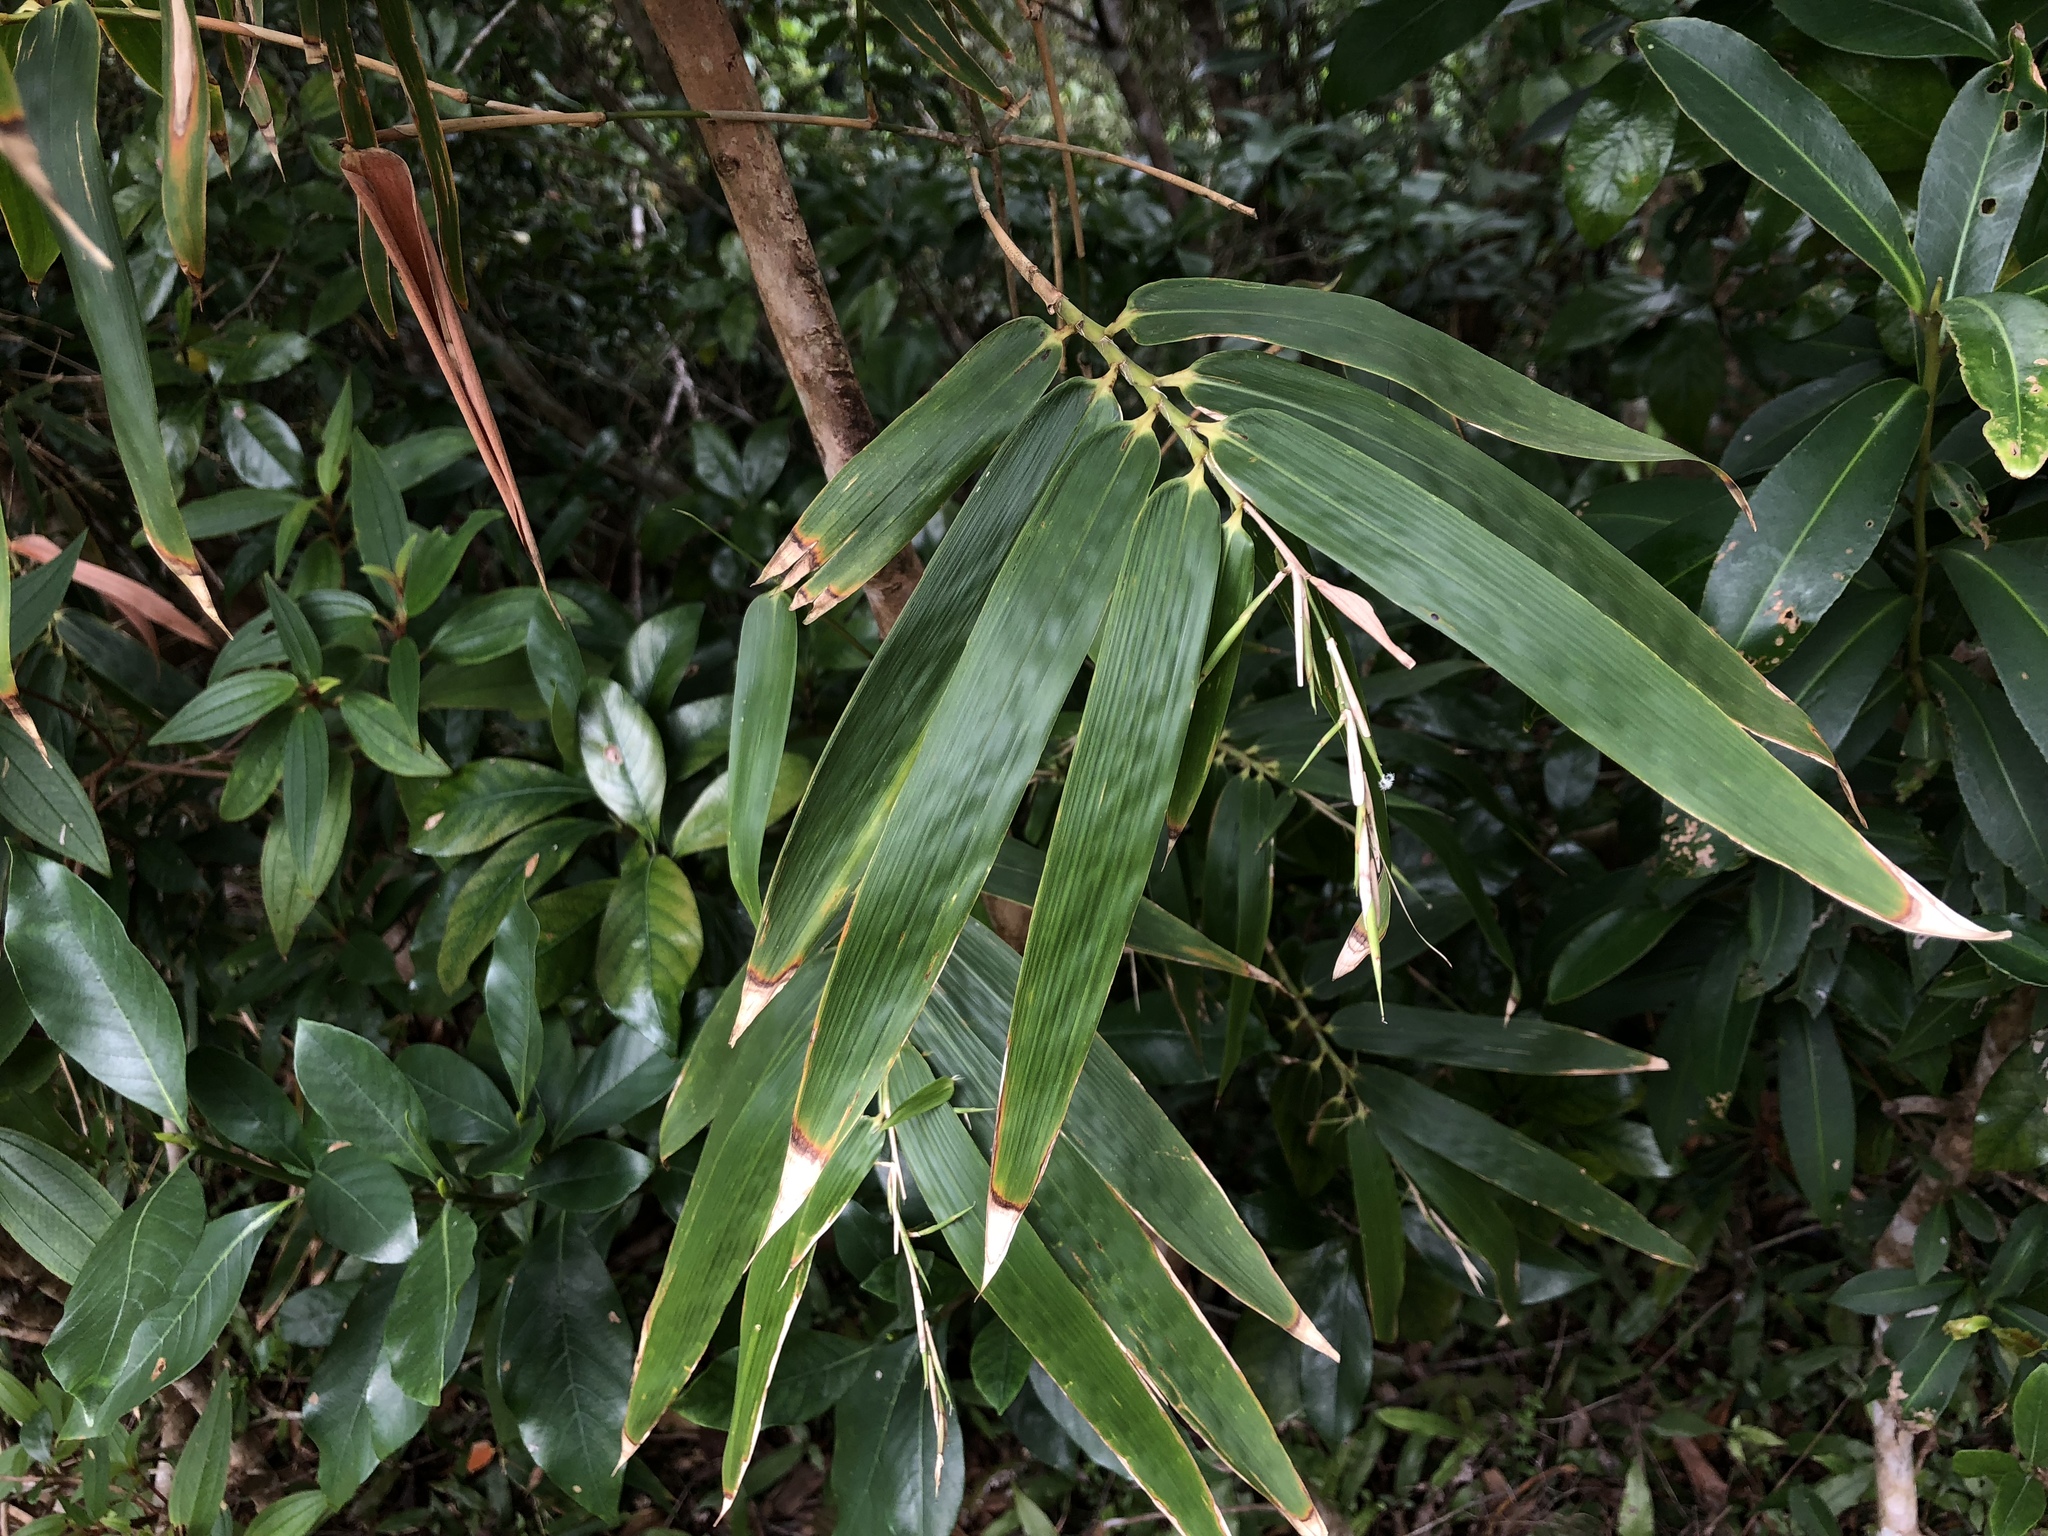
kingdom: Plantae
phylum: Tracheophyta
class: Liliopsida
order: Poales
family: Poaceae
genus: Bambusa
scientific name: Bambusa diffusa
